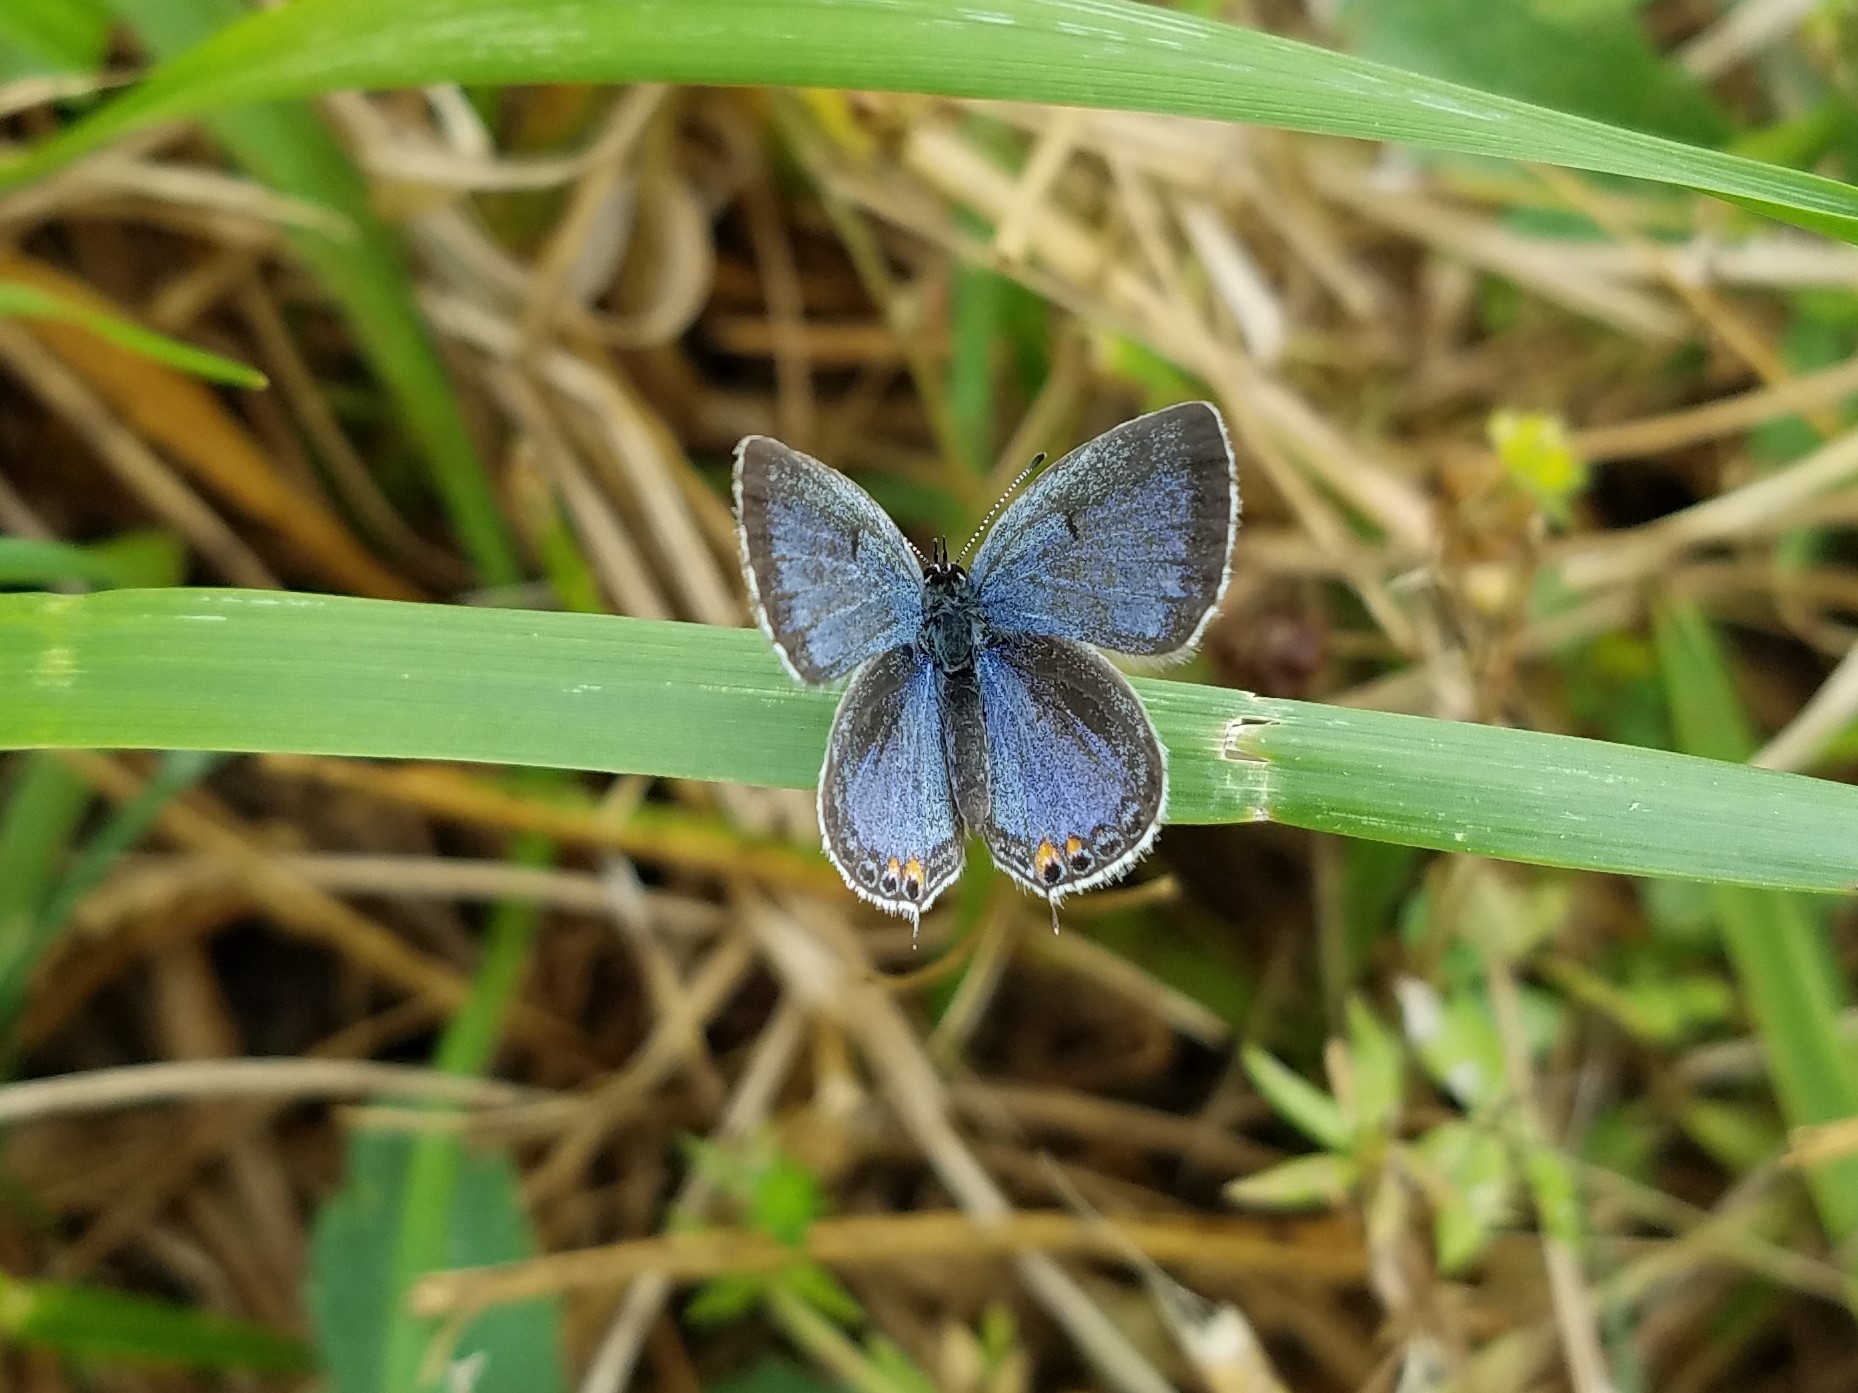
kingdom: Animalia
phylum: Arthropoda
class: Insecta
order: Lepidoptera
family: Lycaenidae
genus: Elkalyce
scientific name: Elkalyce comyntas
